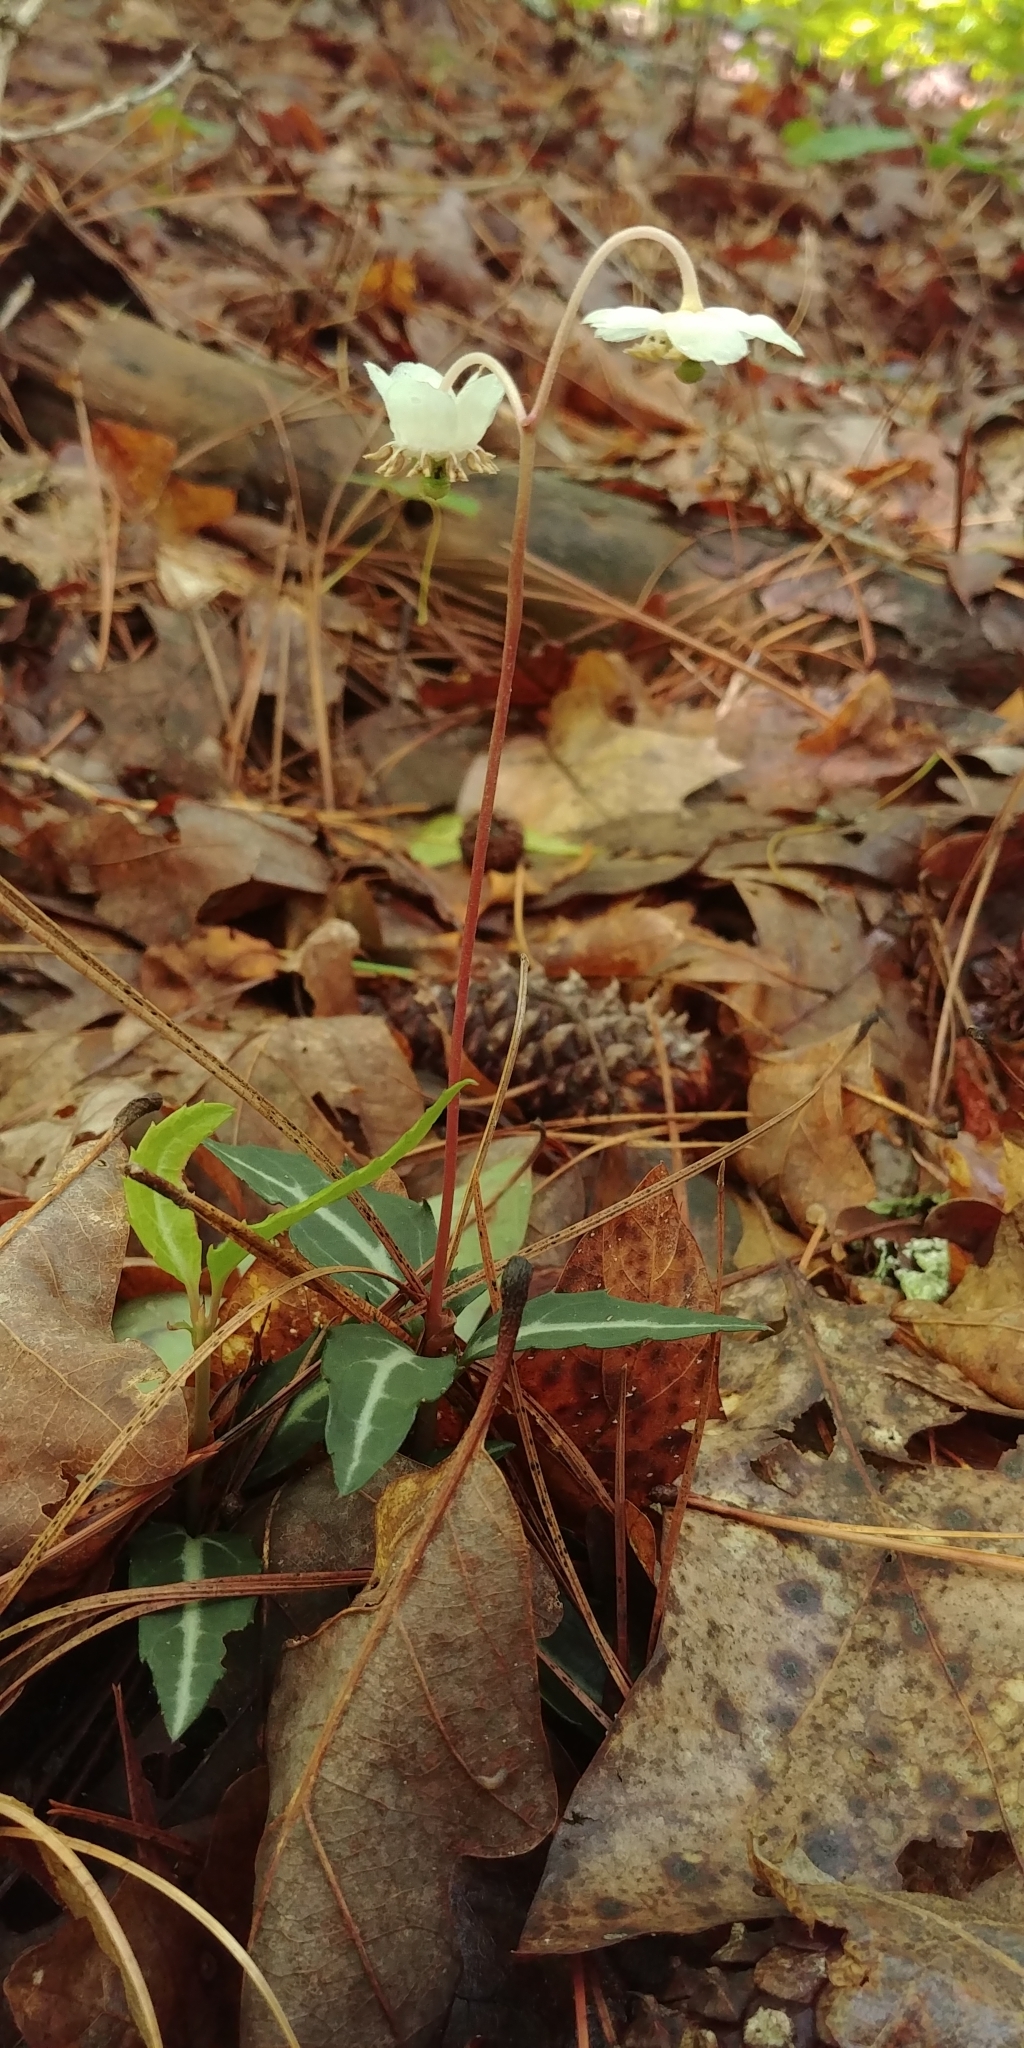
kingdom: Plantae
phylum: Tracheophyta
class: Magnoliopsida
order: Ericales
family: Ericaceae
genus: Chimaphila
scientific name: Chimaphila maculata
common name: Spotted pipsissewa
